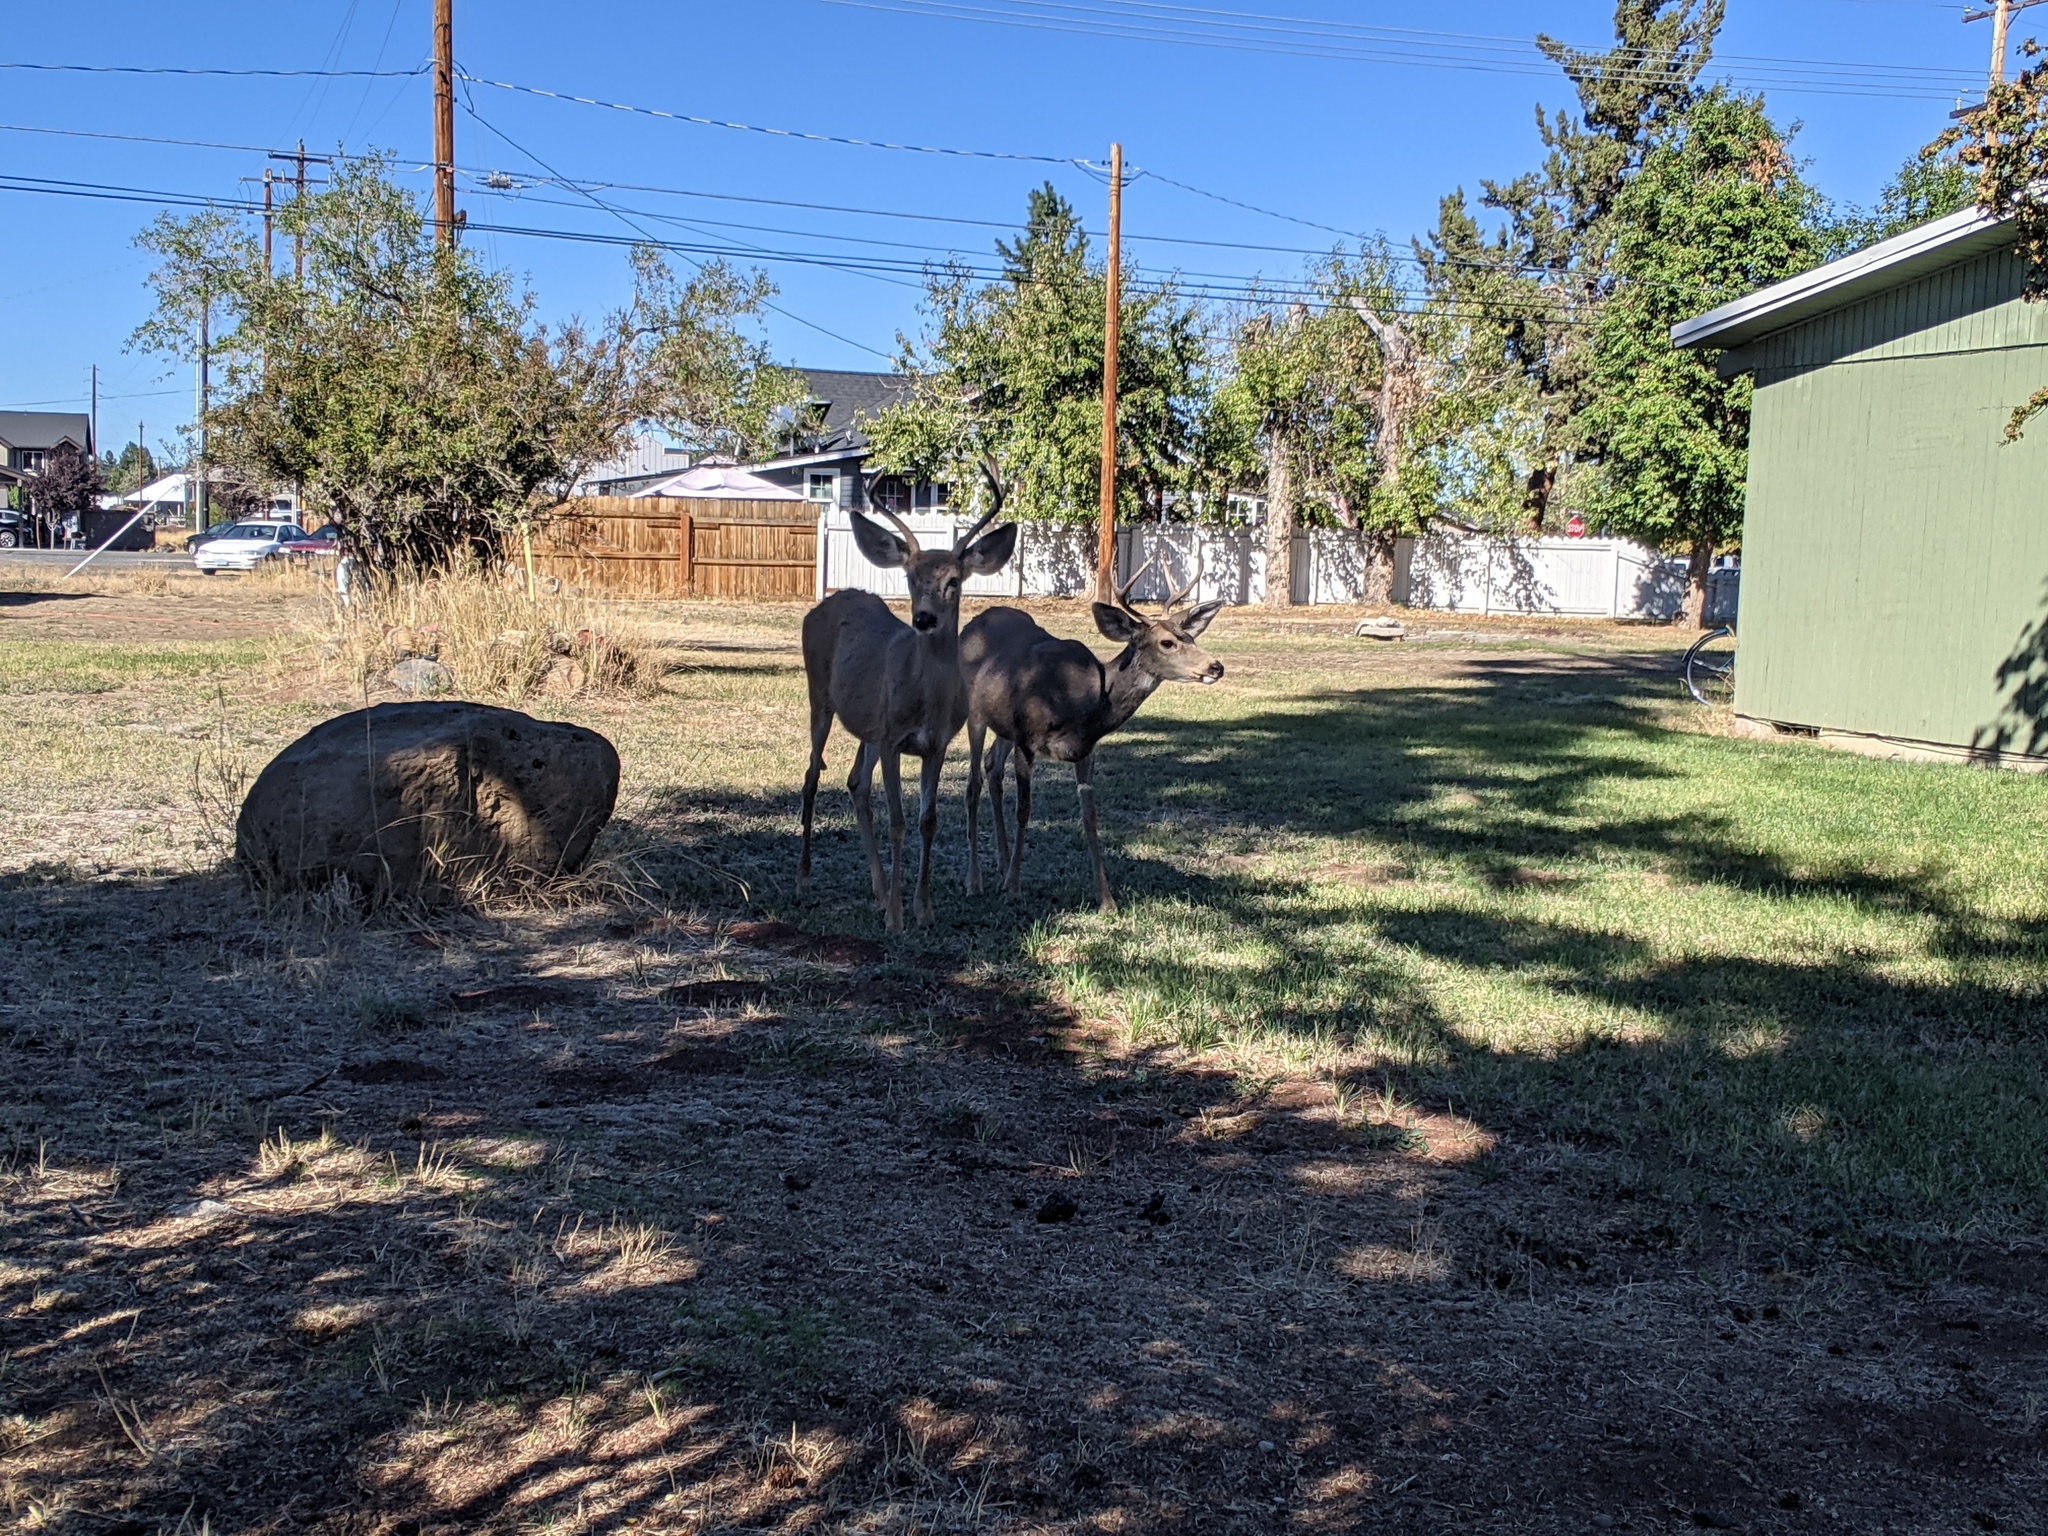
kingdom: Animalia
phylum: Chordata
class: Mammalia
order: Artiodactyla
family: Cervidae
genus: Odocoileus
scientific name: Odocoileus hemionus
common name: Mule deer
